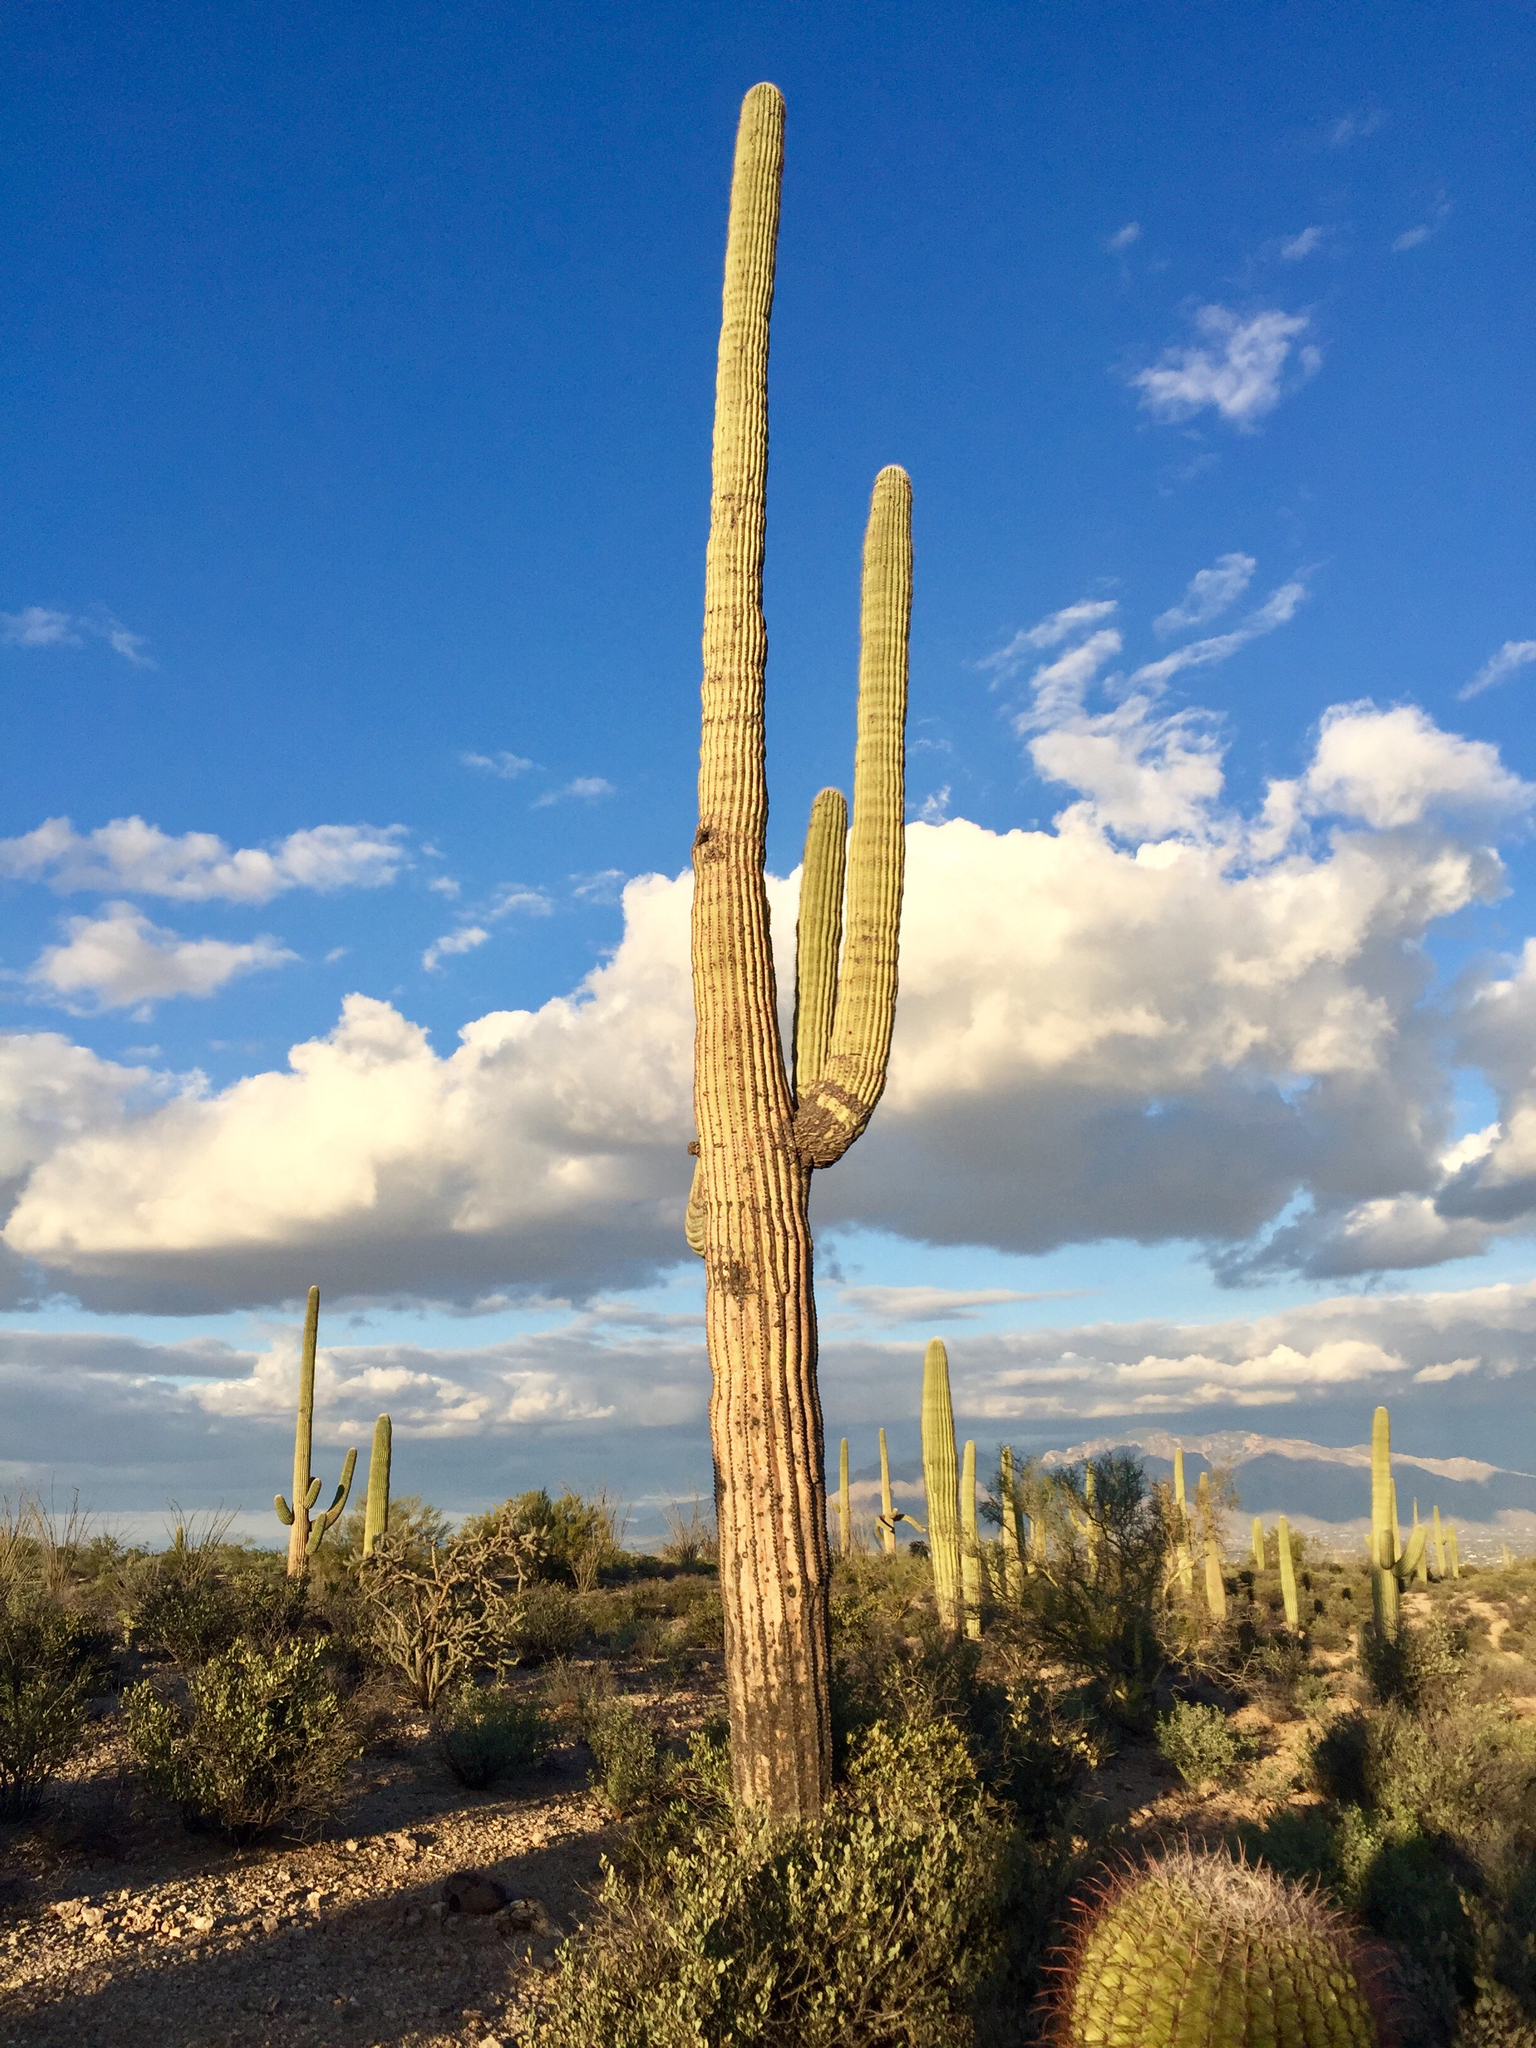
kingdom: Plantae
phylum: Tracheophyta
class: Magnoliopsida
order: Caryophyllales
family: Cactaceae
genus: Carnegiea
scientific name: Carnegiea gigantea
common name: Saguaro
